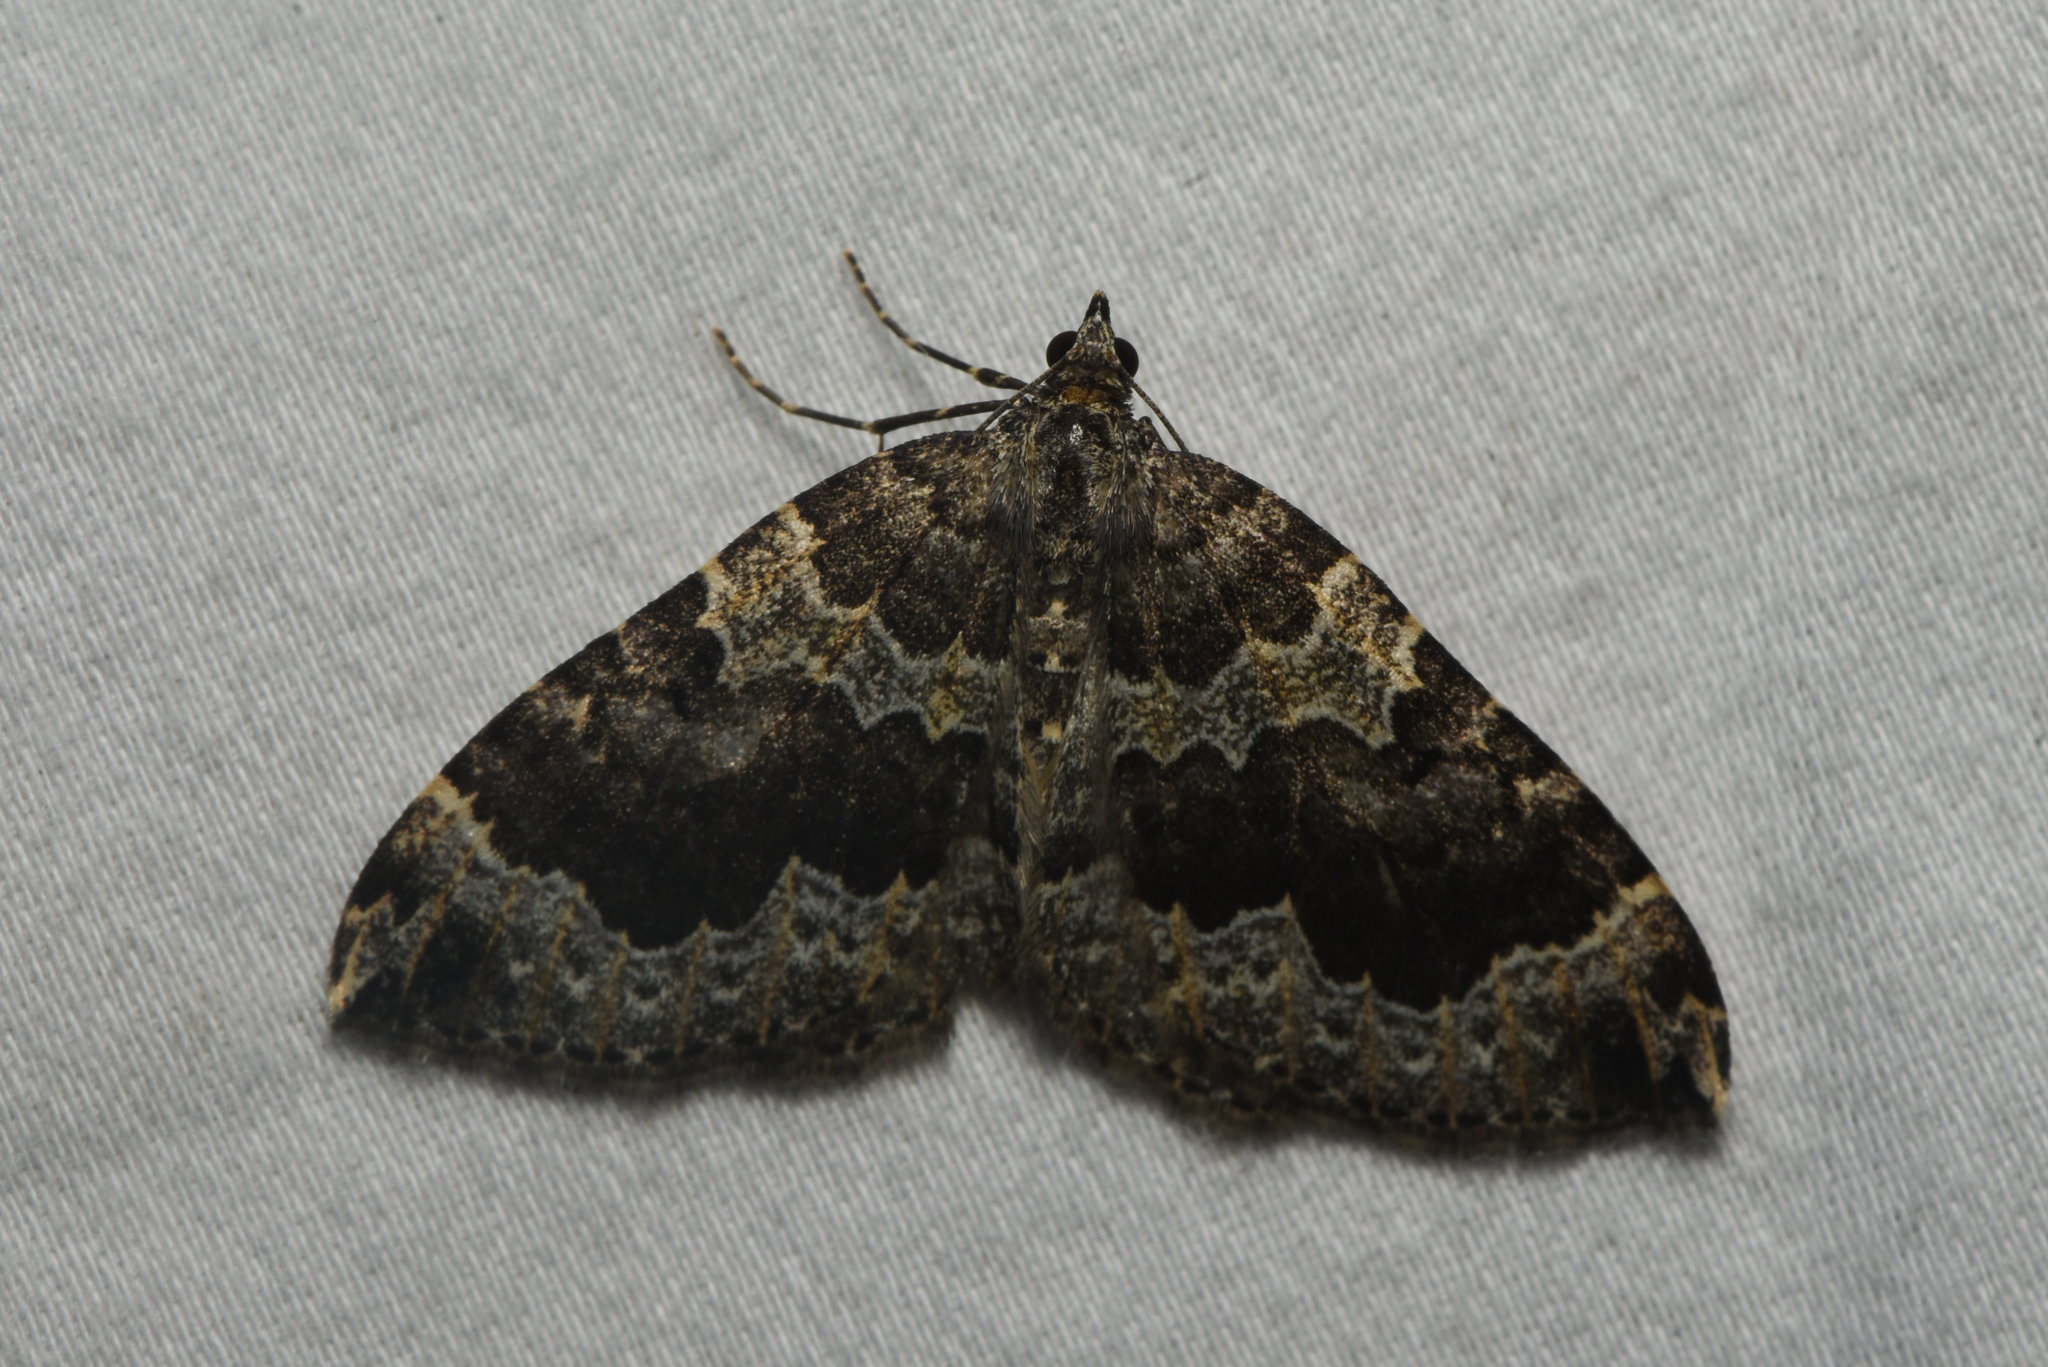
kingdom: Animalia
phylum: Arthropoda
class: Insecta
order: Lepidoptera
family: Geometridae
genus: Eustroma
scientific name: Eustroma semiatrata
